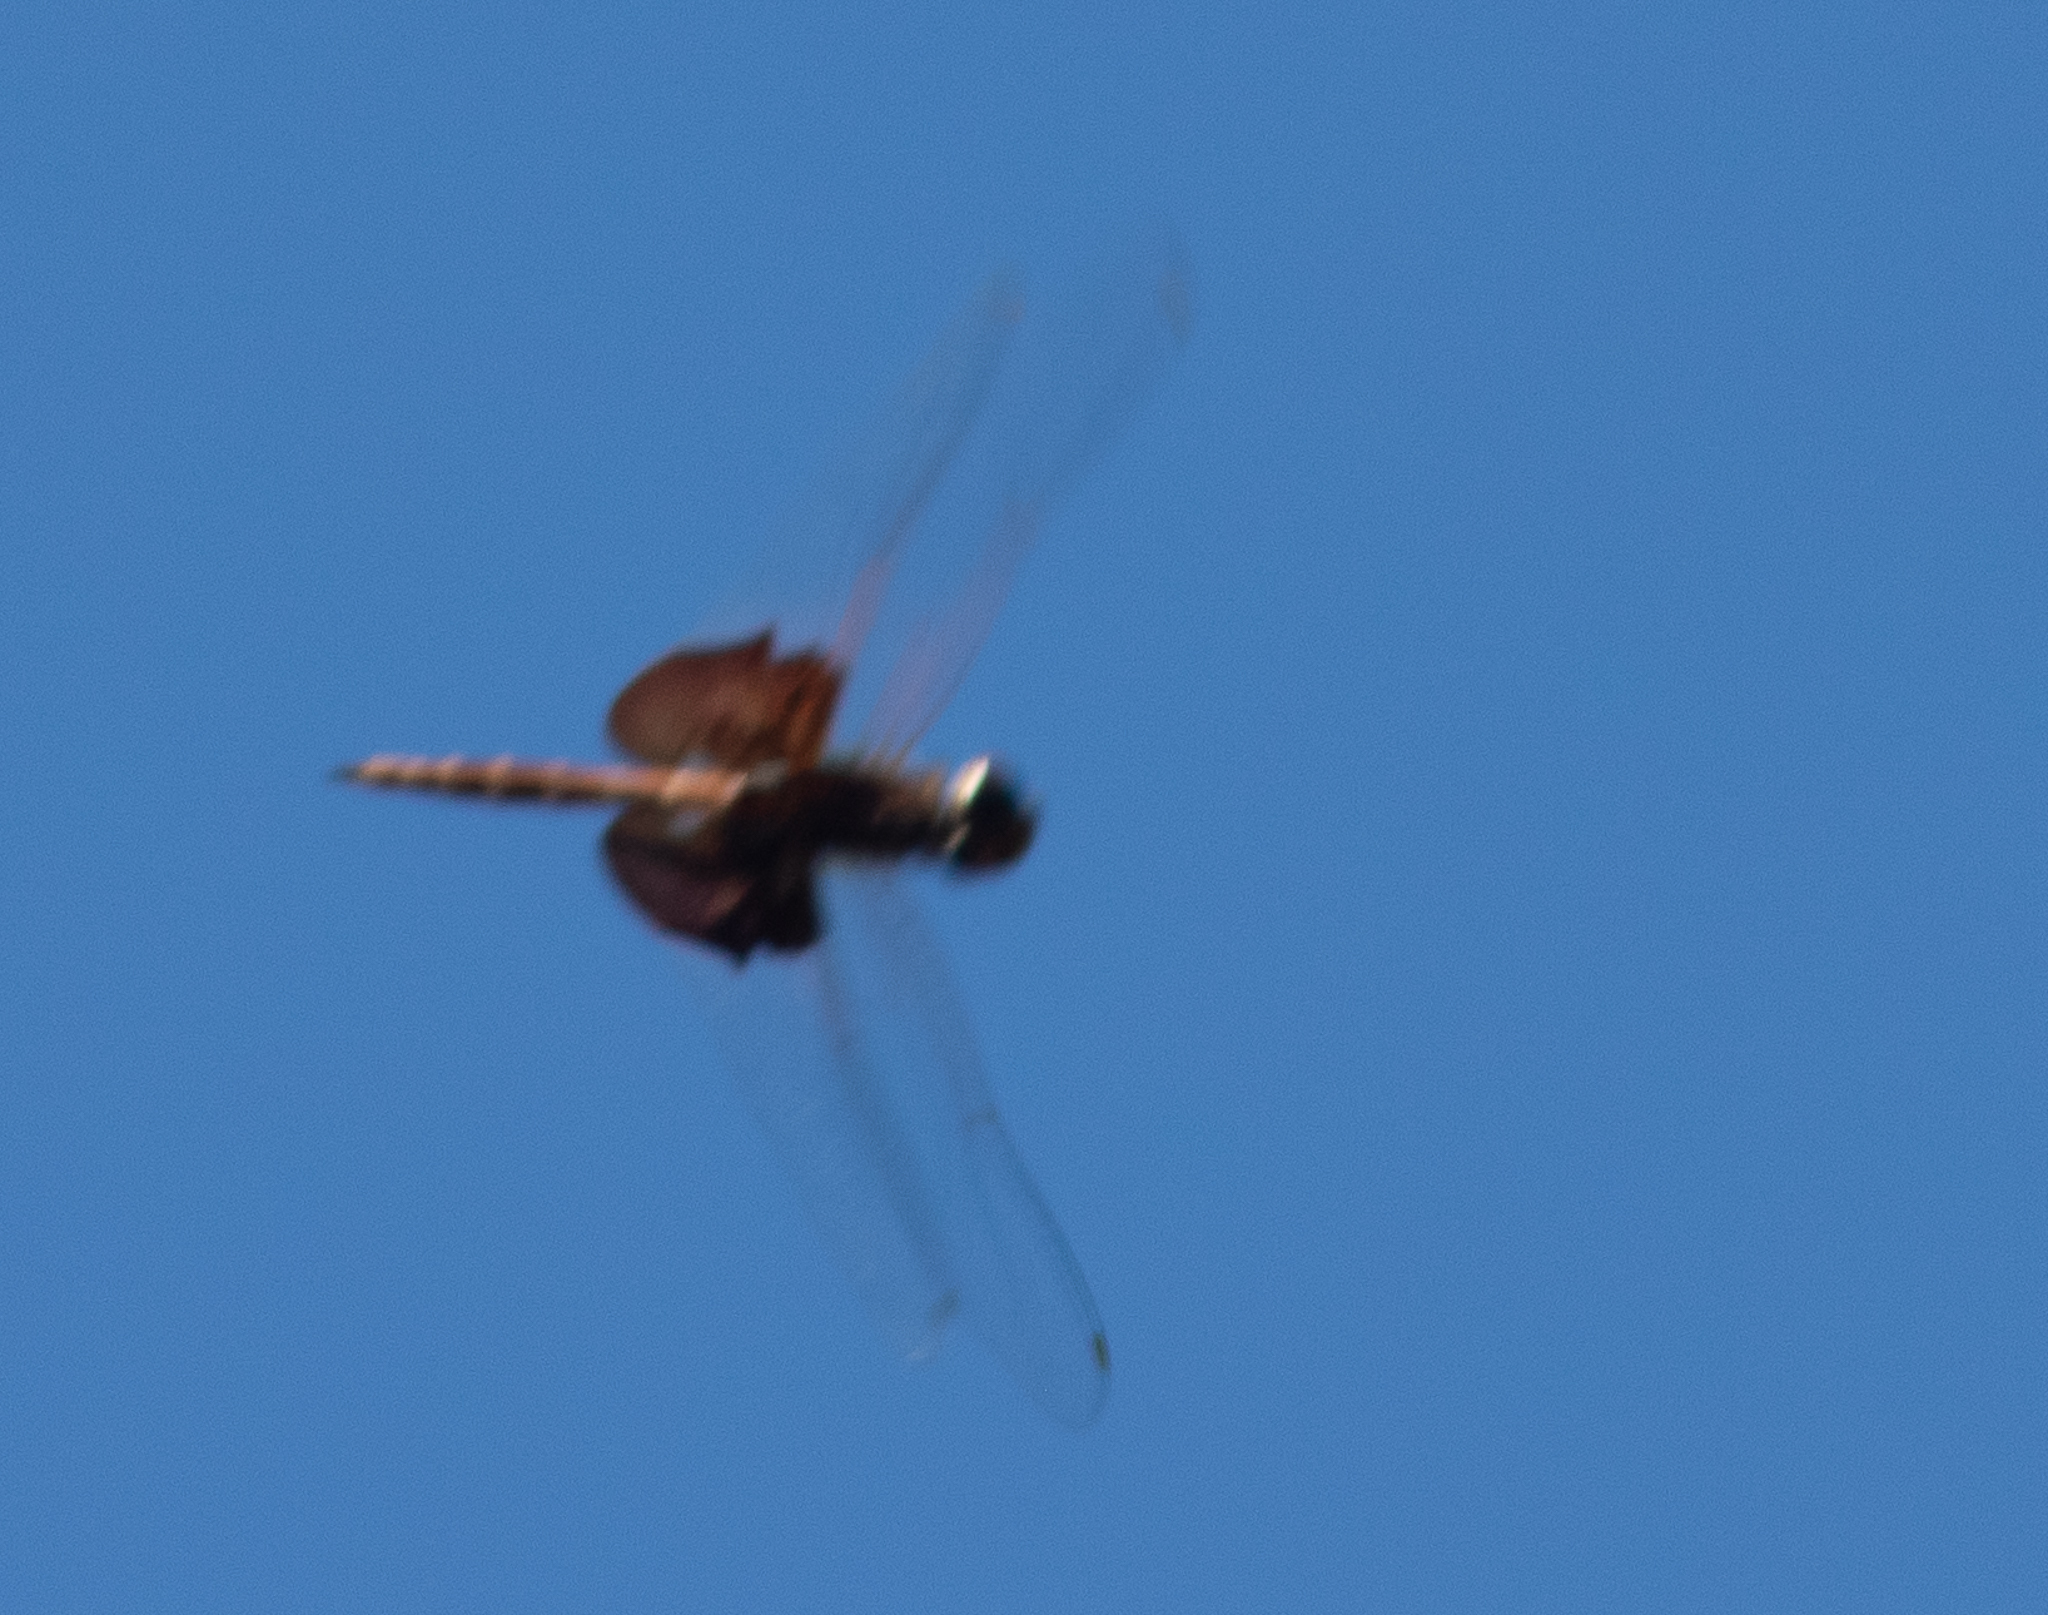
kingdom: Animalia
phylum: Arthropoda
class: Insecta
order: Odonata
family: Libellulidae
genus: Tramea
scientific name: Tramea carolina
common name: Carolina saddlebags
